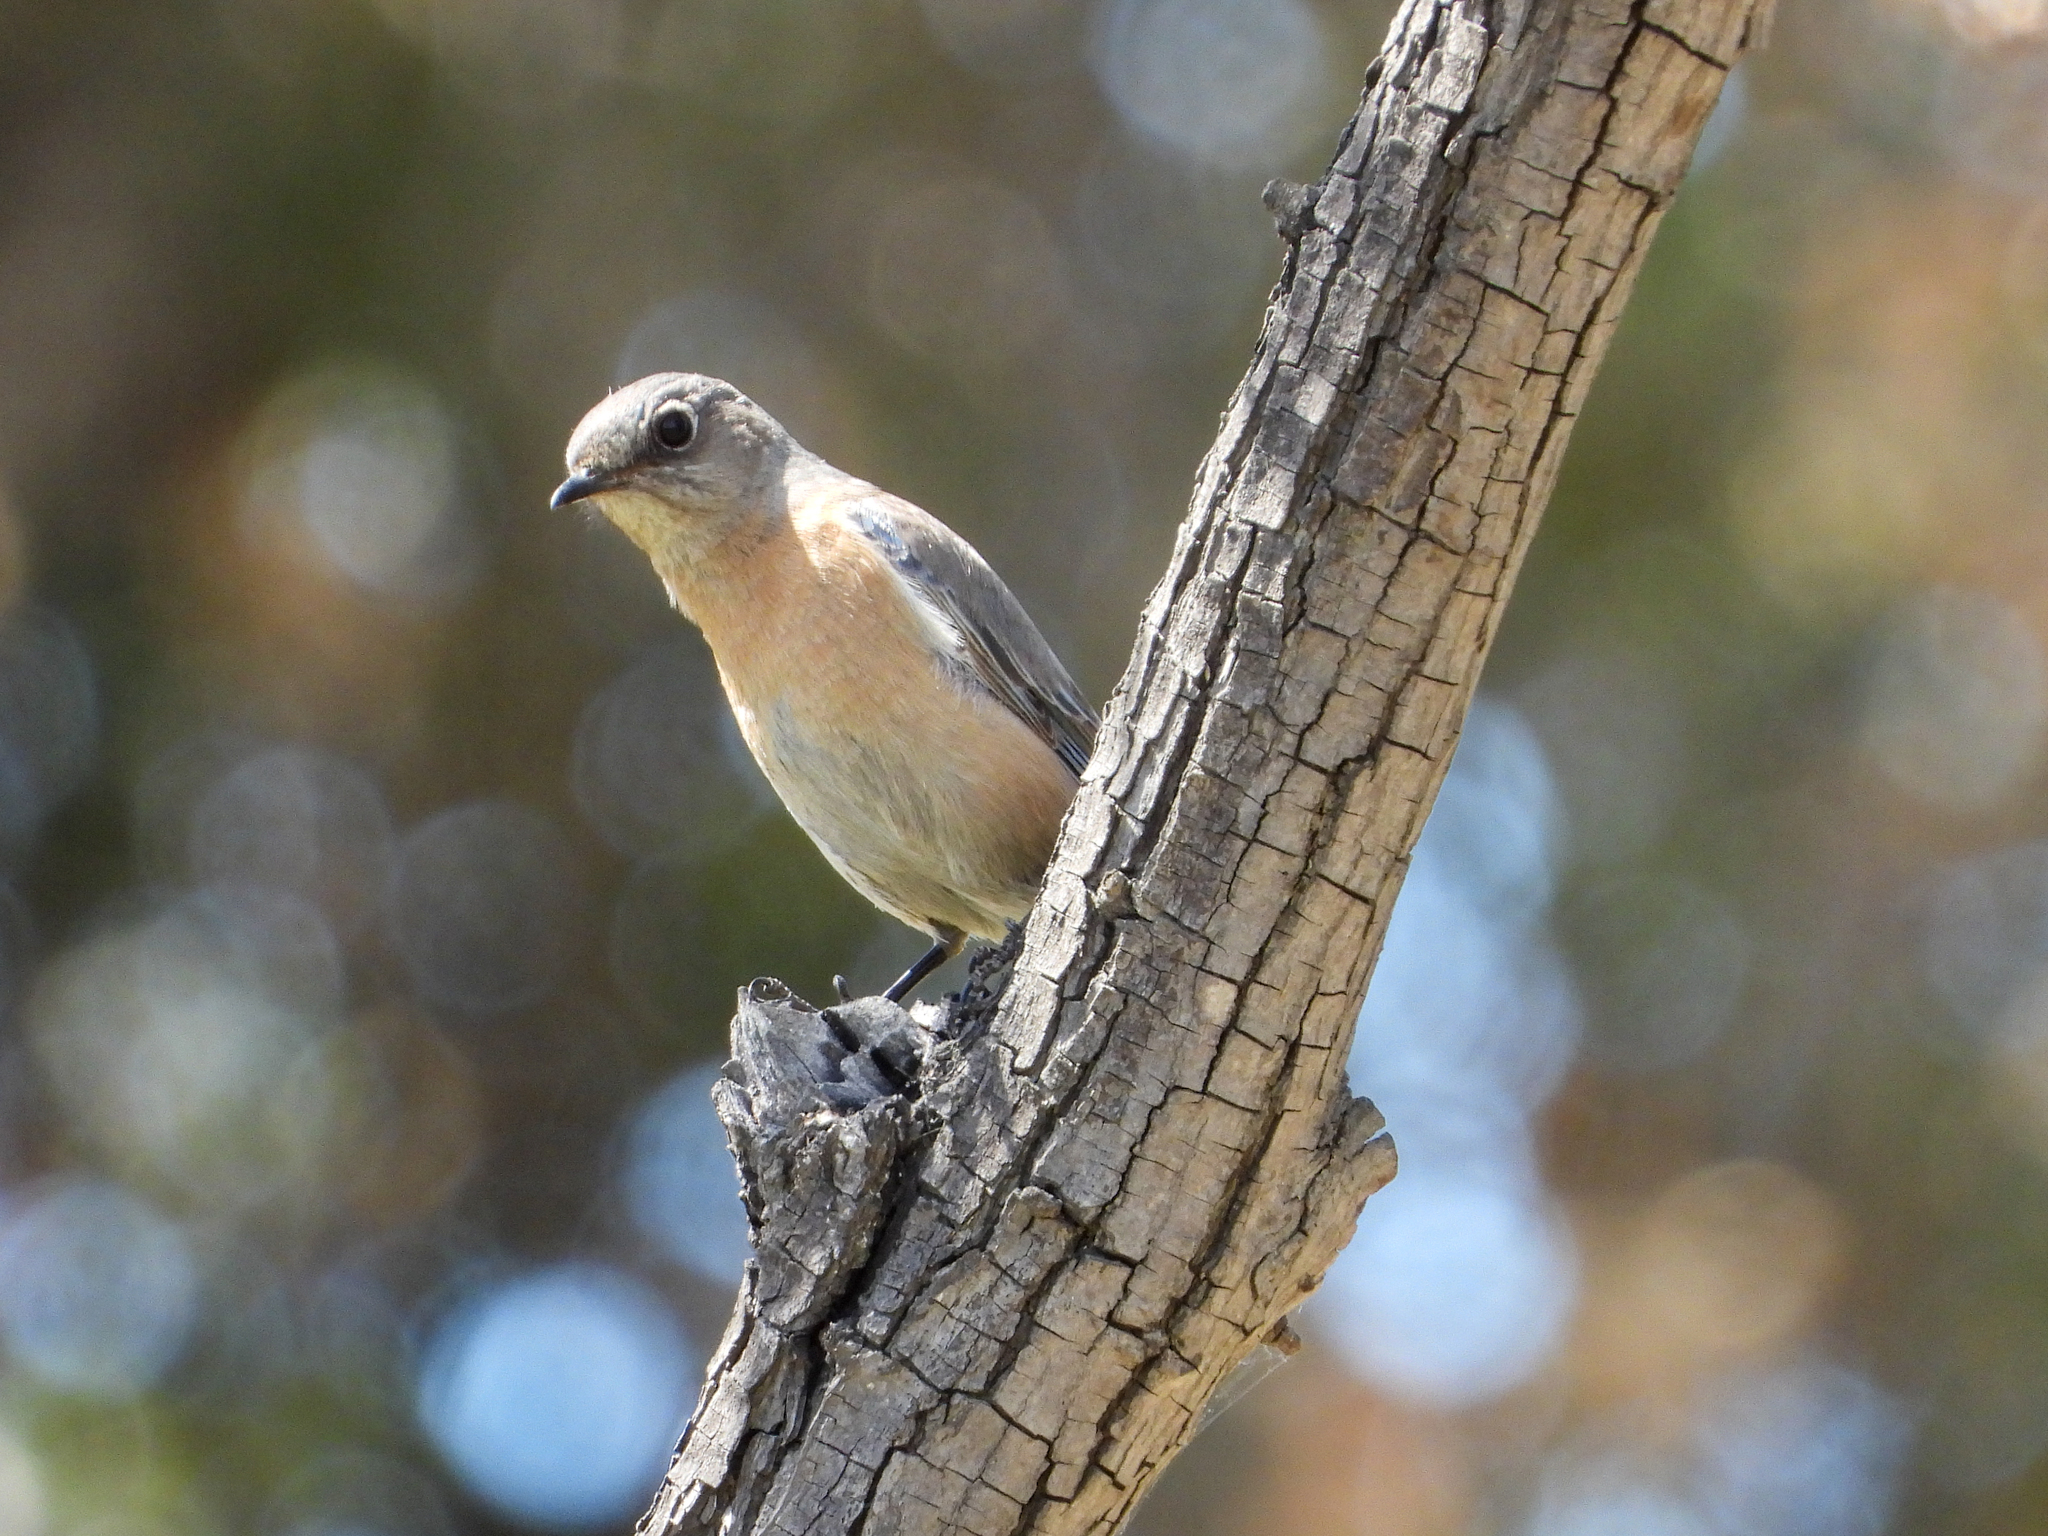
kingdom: Animalia
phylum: Chordata
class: Aves
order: Passeriformes
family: Turdidae
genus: Sialia
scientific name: Sialia mexicana
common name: Western bluebird
